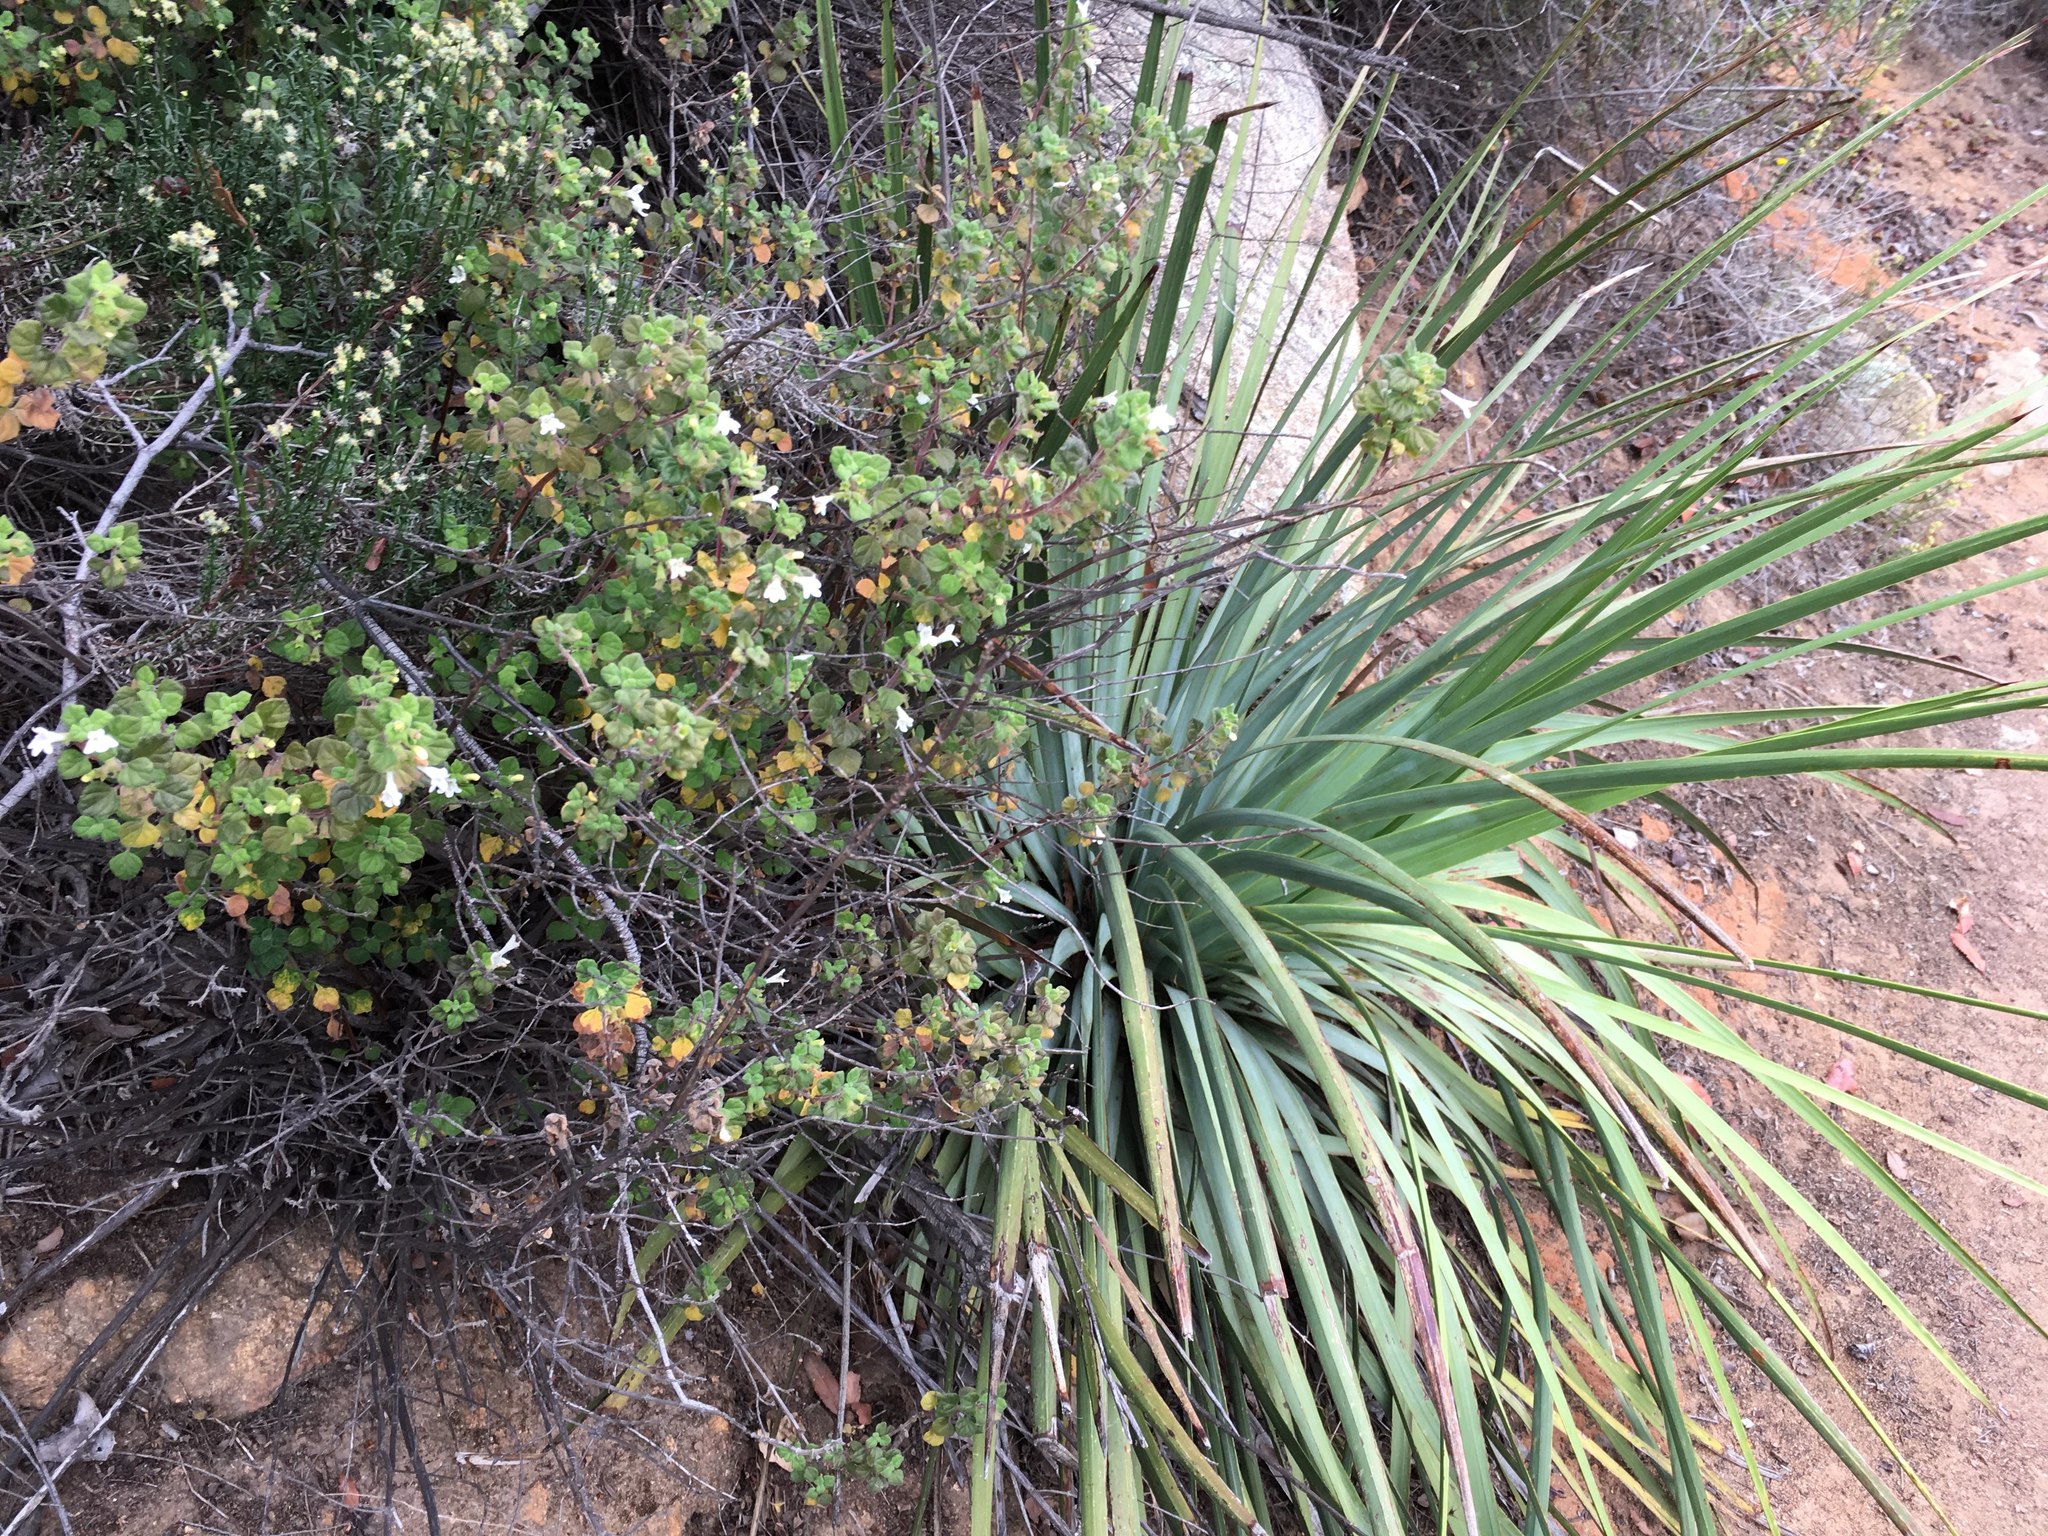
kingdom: Plantae
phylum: Tracheophyta
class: Magnoliopsida
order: Lamiales
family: Lamiaceae
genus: Clinopodium
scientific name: Clinopodium chandleri
